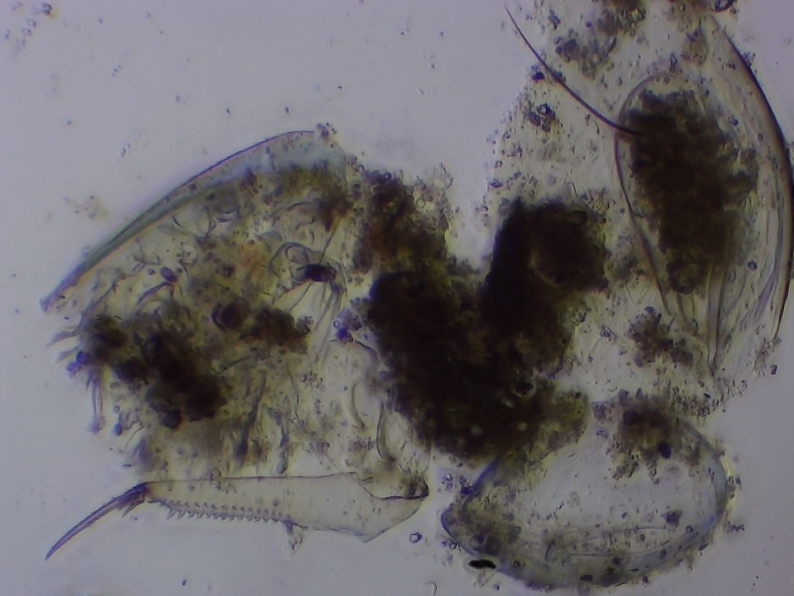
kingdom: Animalia
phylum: Arthropoda
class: Branchiopoda
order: Diplostraca
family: Chydoridae
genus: Camptocercus
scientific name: Camptocercus rotundus
